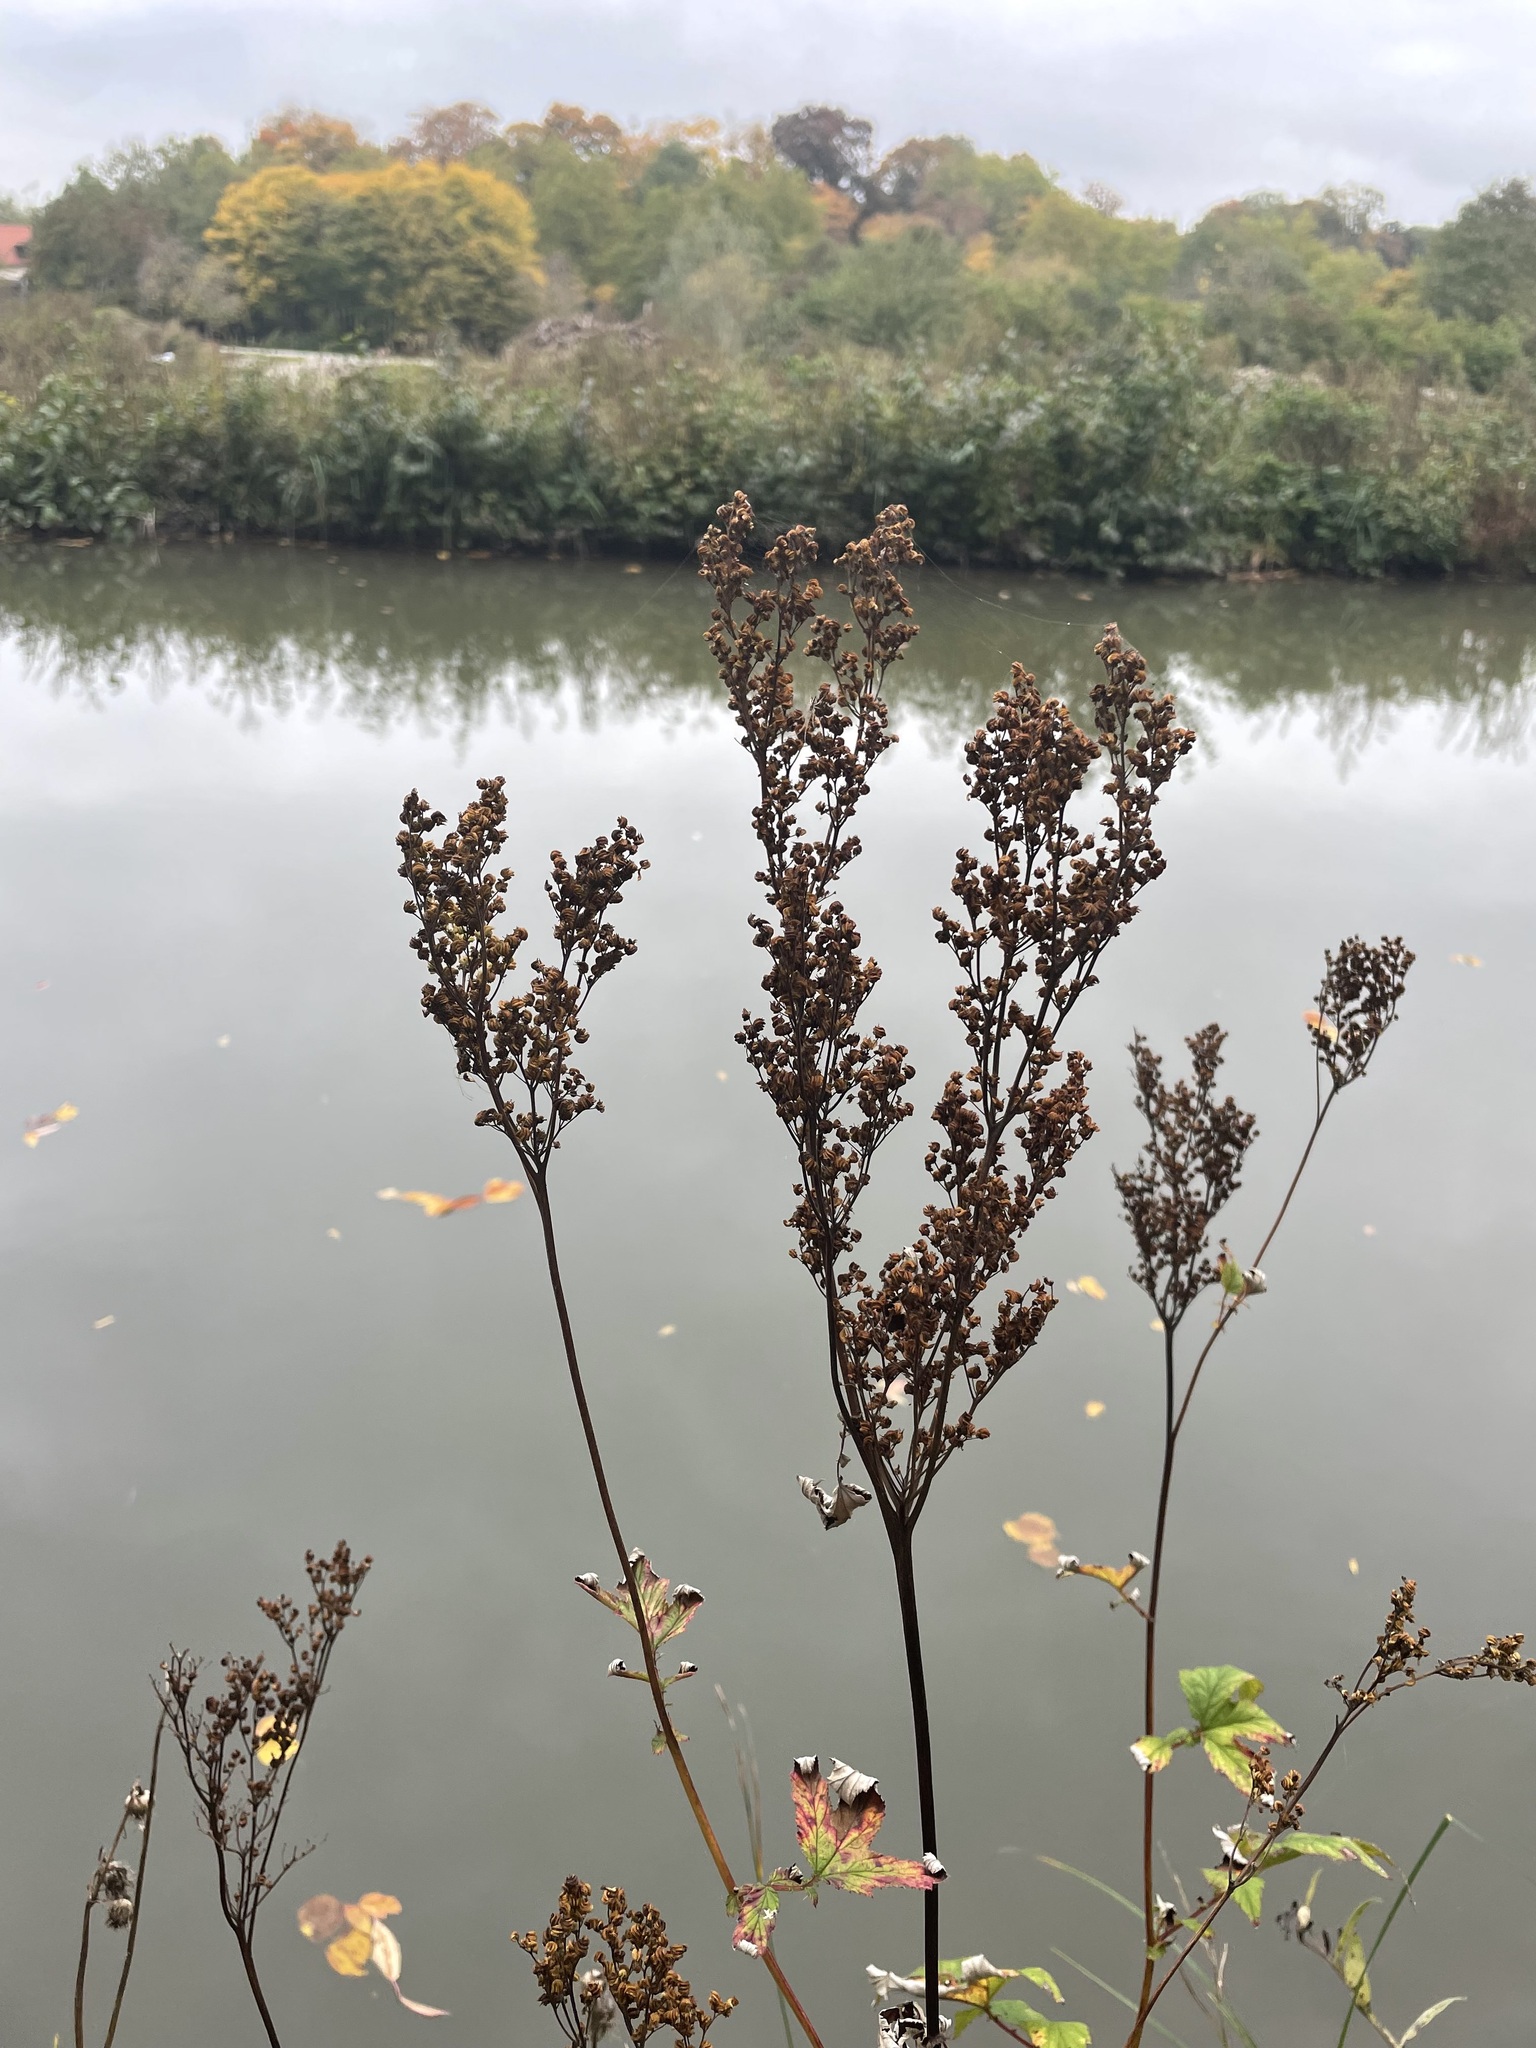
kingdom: Plantae
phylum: Tracheophyta
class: Magnoliopsida
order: Rosales
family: Rosaceae
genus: Filipendula
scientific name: Filipendula ulmaria
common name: Meadowsweet
